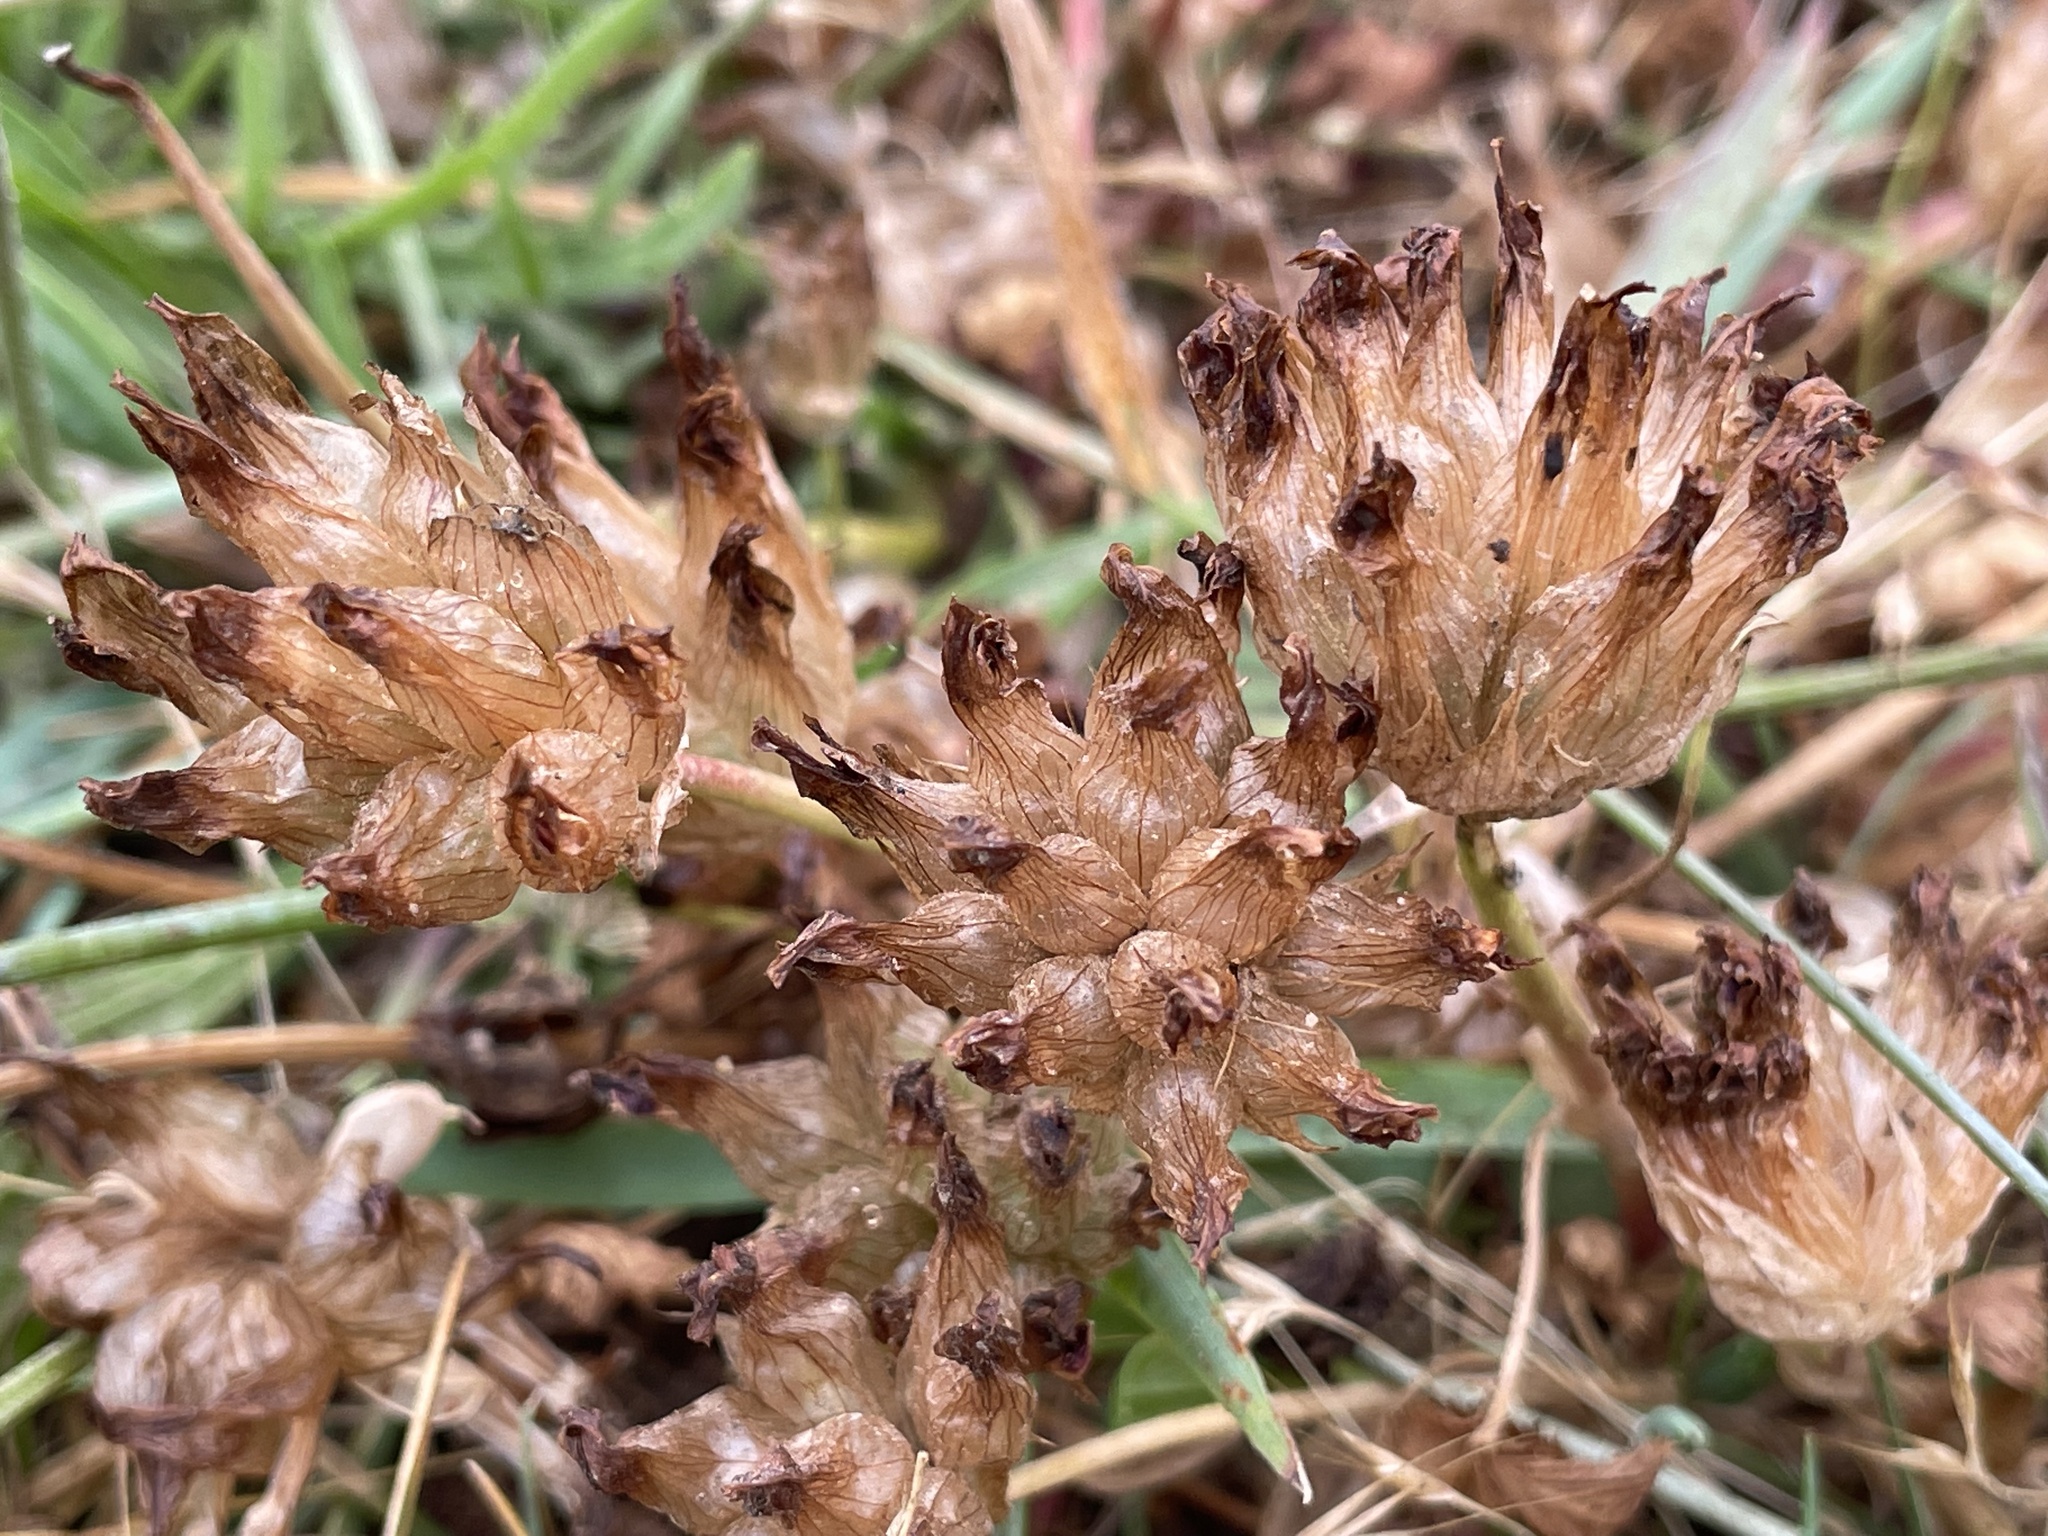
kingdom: Plantae
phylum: Tracheophyta
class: Magnoliopsida
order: Fabales
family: Fabaceae
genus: Trifolium
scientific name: Trifolium fucatum
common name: Puff clover
